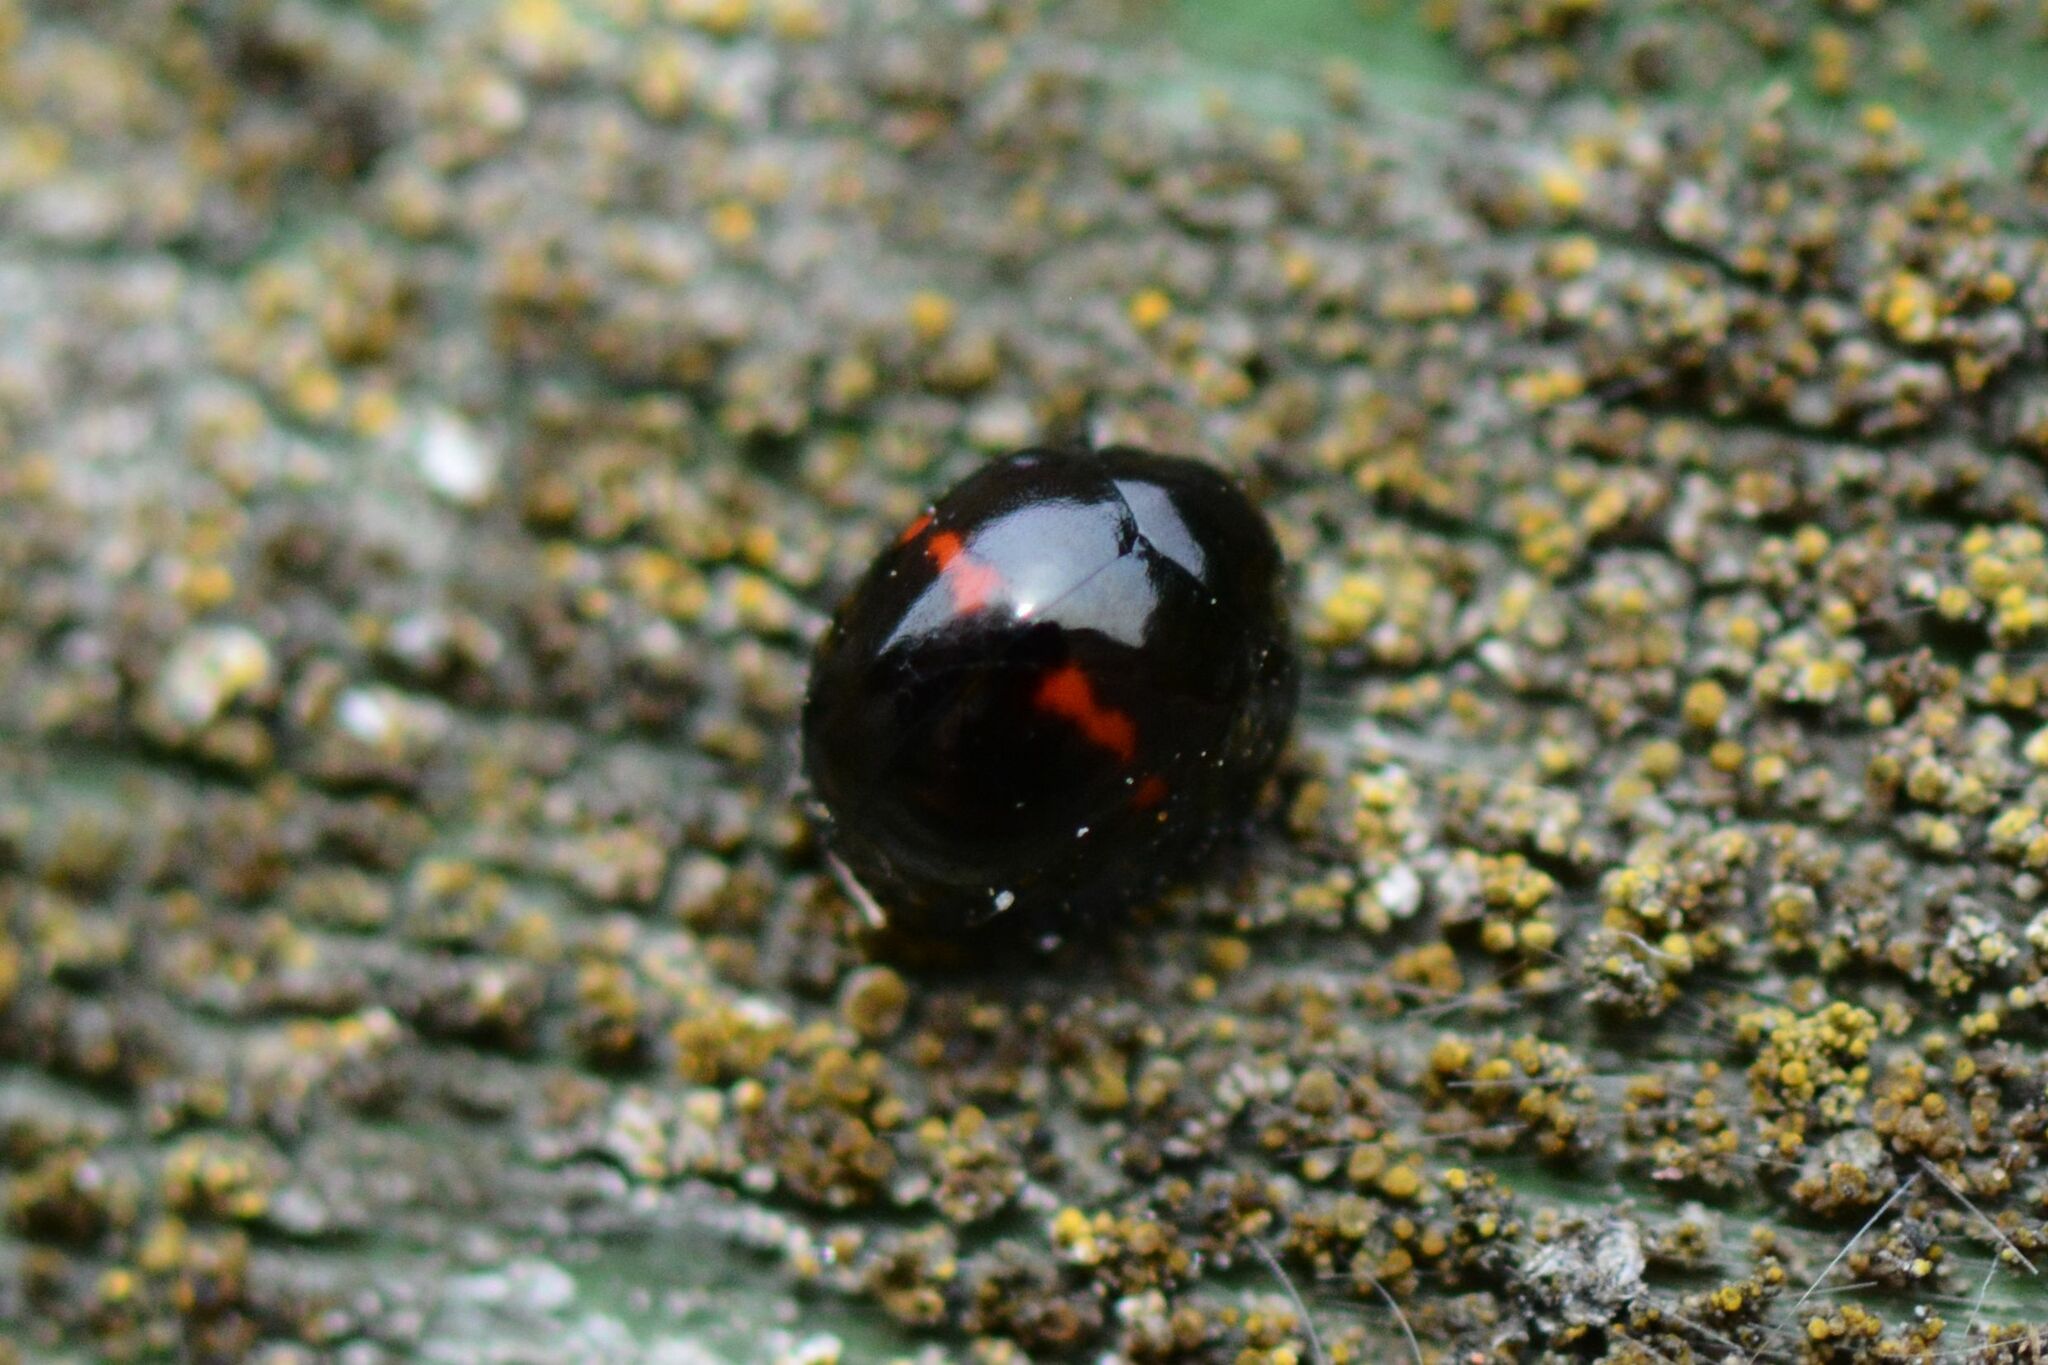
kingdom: Animalia
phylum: Arthropoda
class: Insecta
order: Coleoptera
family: Coccinellidae
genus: Chilocorus
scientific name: Chilocorus bipustulatus
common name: Heather ladybird
